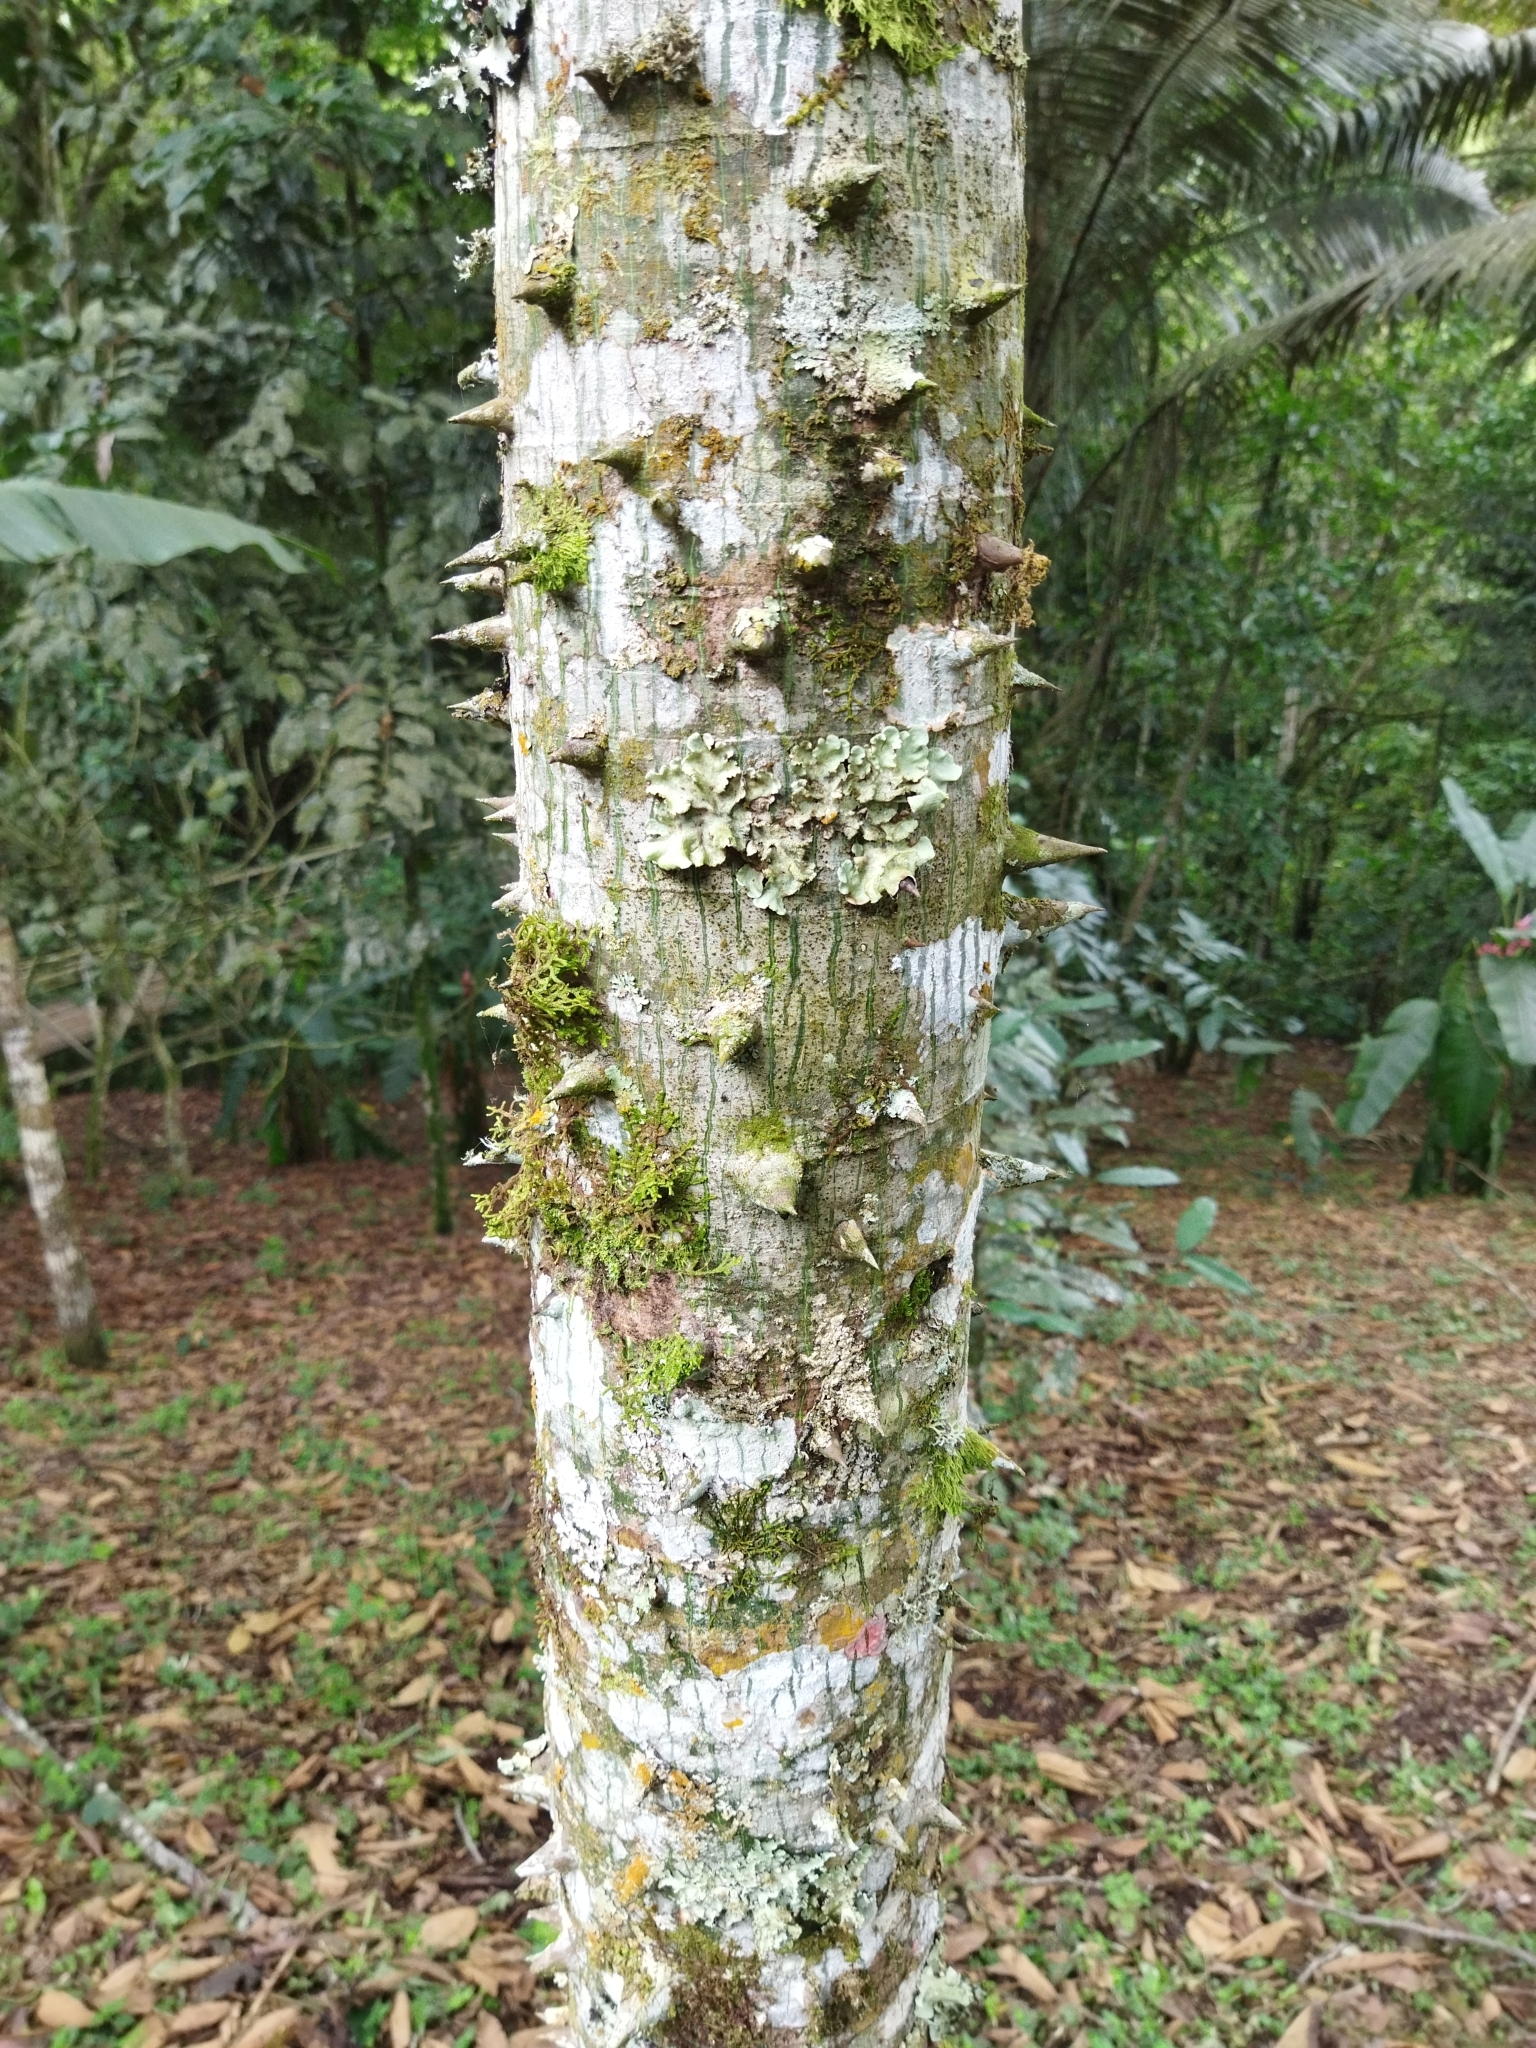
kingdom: Plantae
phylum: Tracheophyta
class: Magnoliopsida
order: Malvales
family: Malvaceae
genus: Ceiba
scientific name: Ceiba pentandra
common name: Kapok
